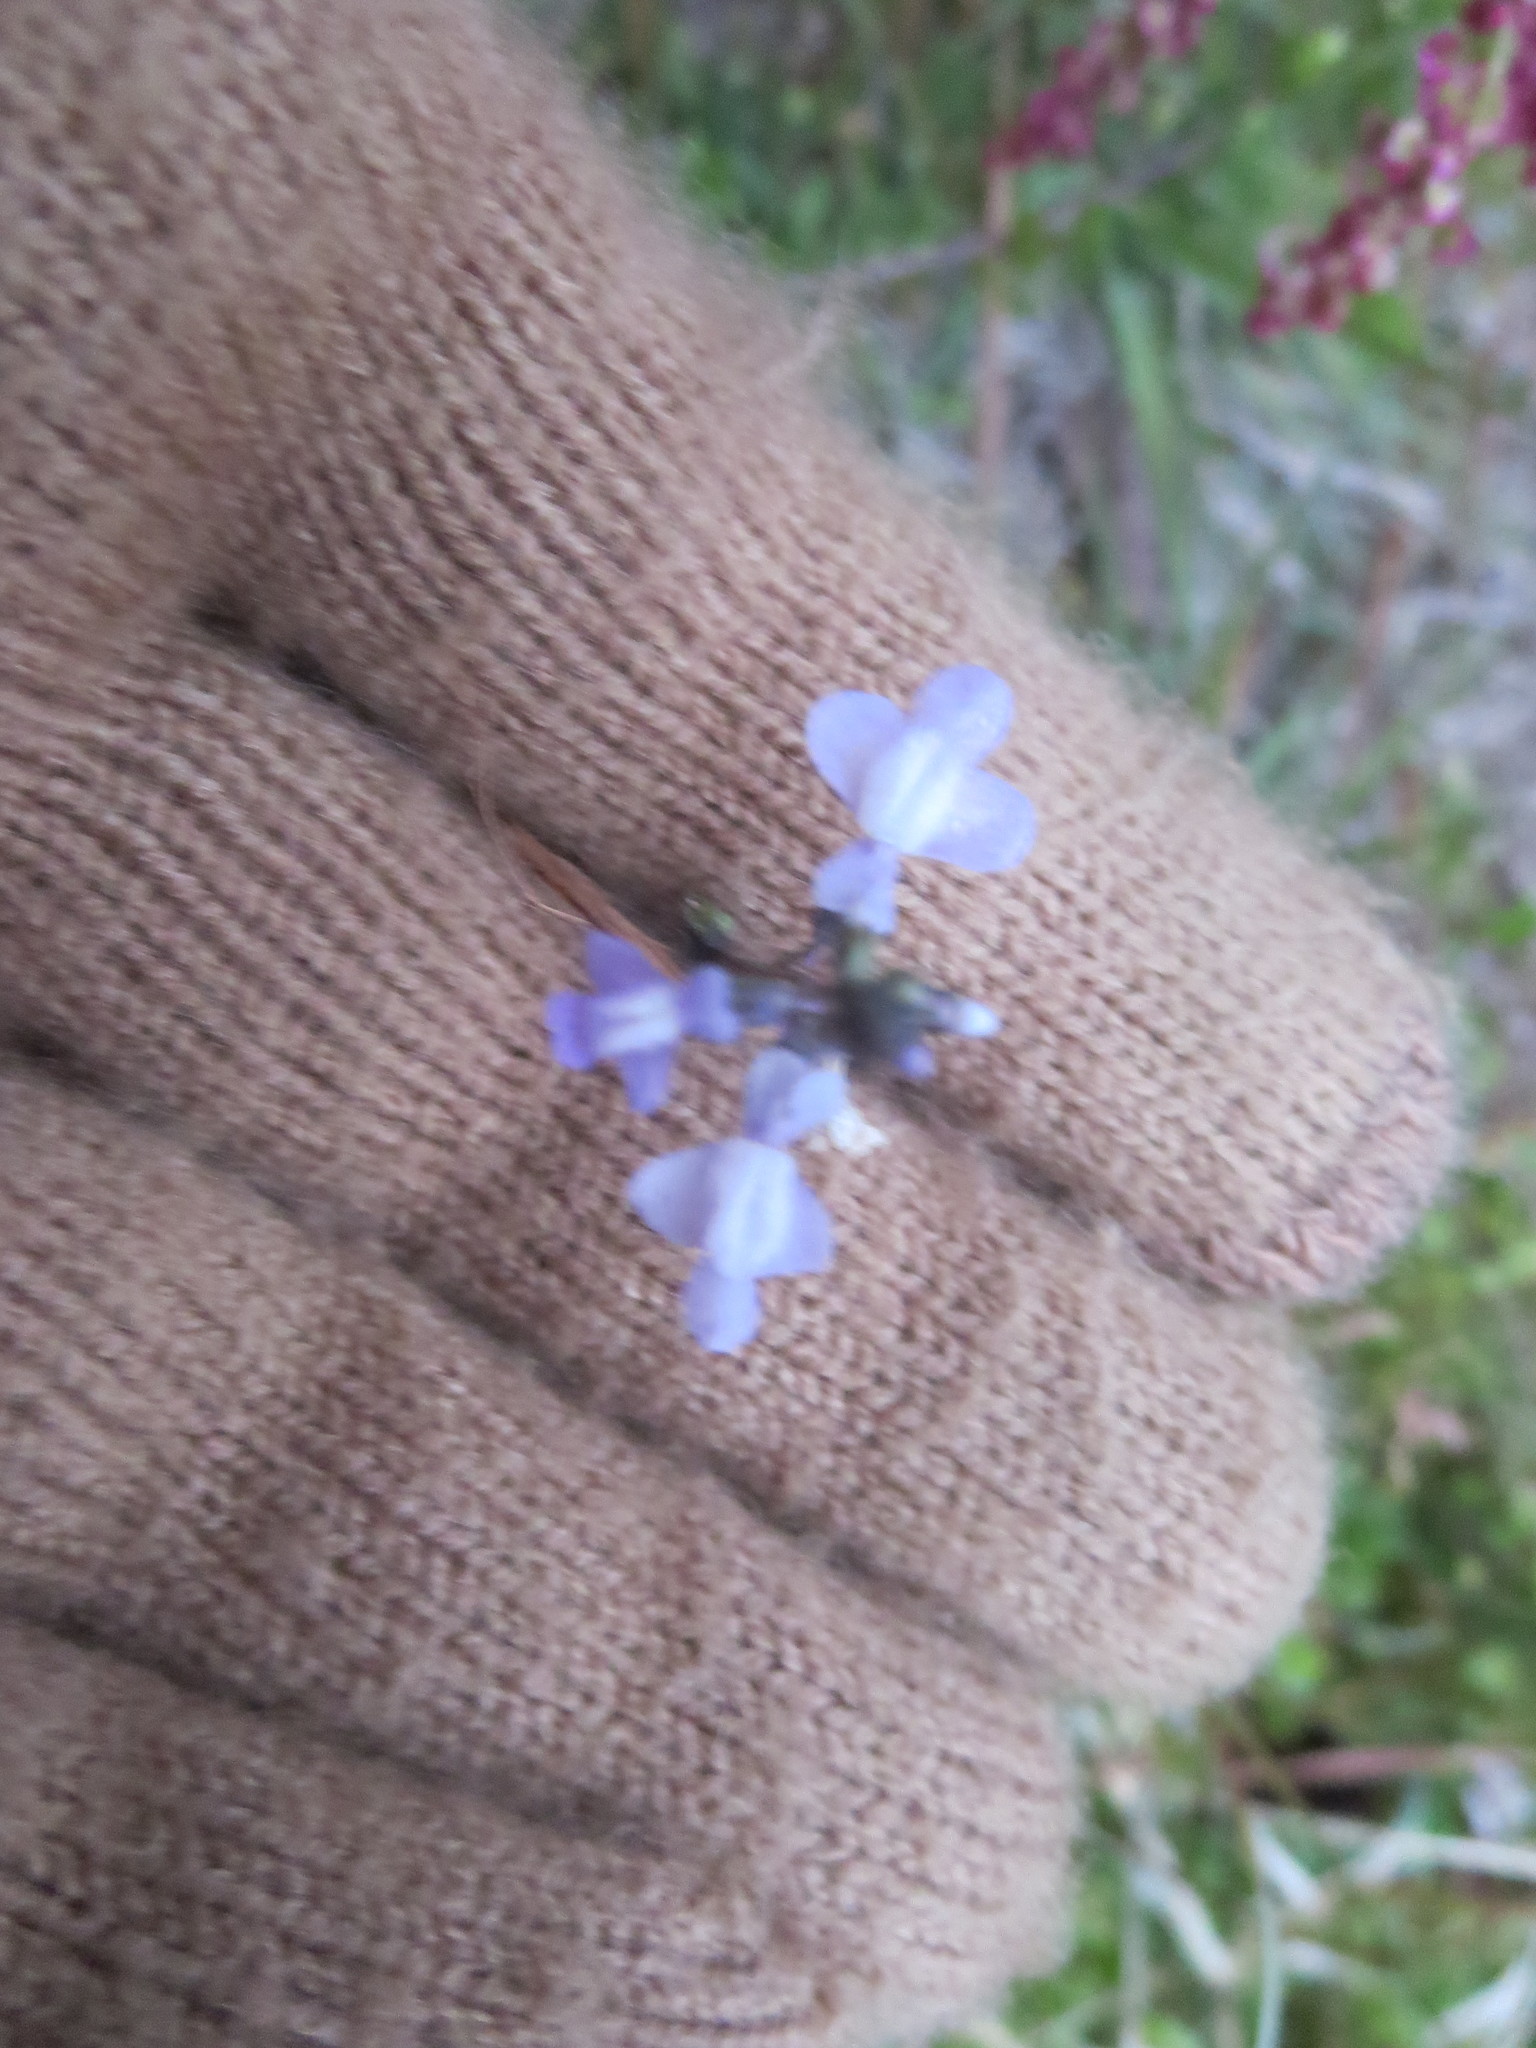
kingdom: Plantae
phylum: Tracheophyta
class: Magnoliopsida
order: Lamiales
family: Plantaginaceae
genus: Nuttallanthus
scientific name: Nuttallanthus canadensis
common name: Blue toadflax
